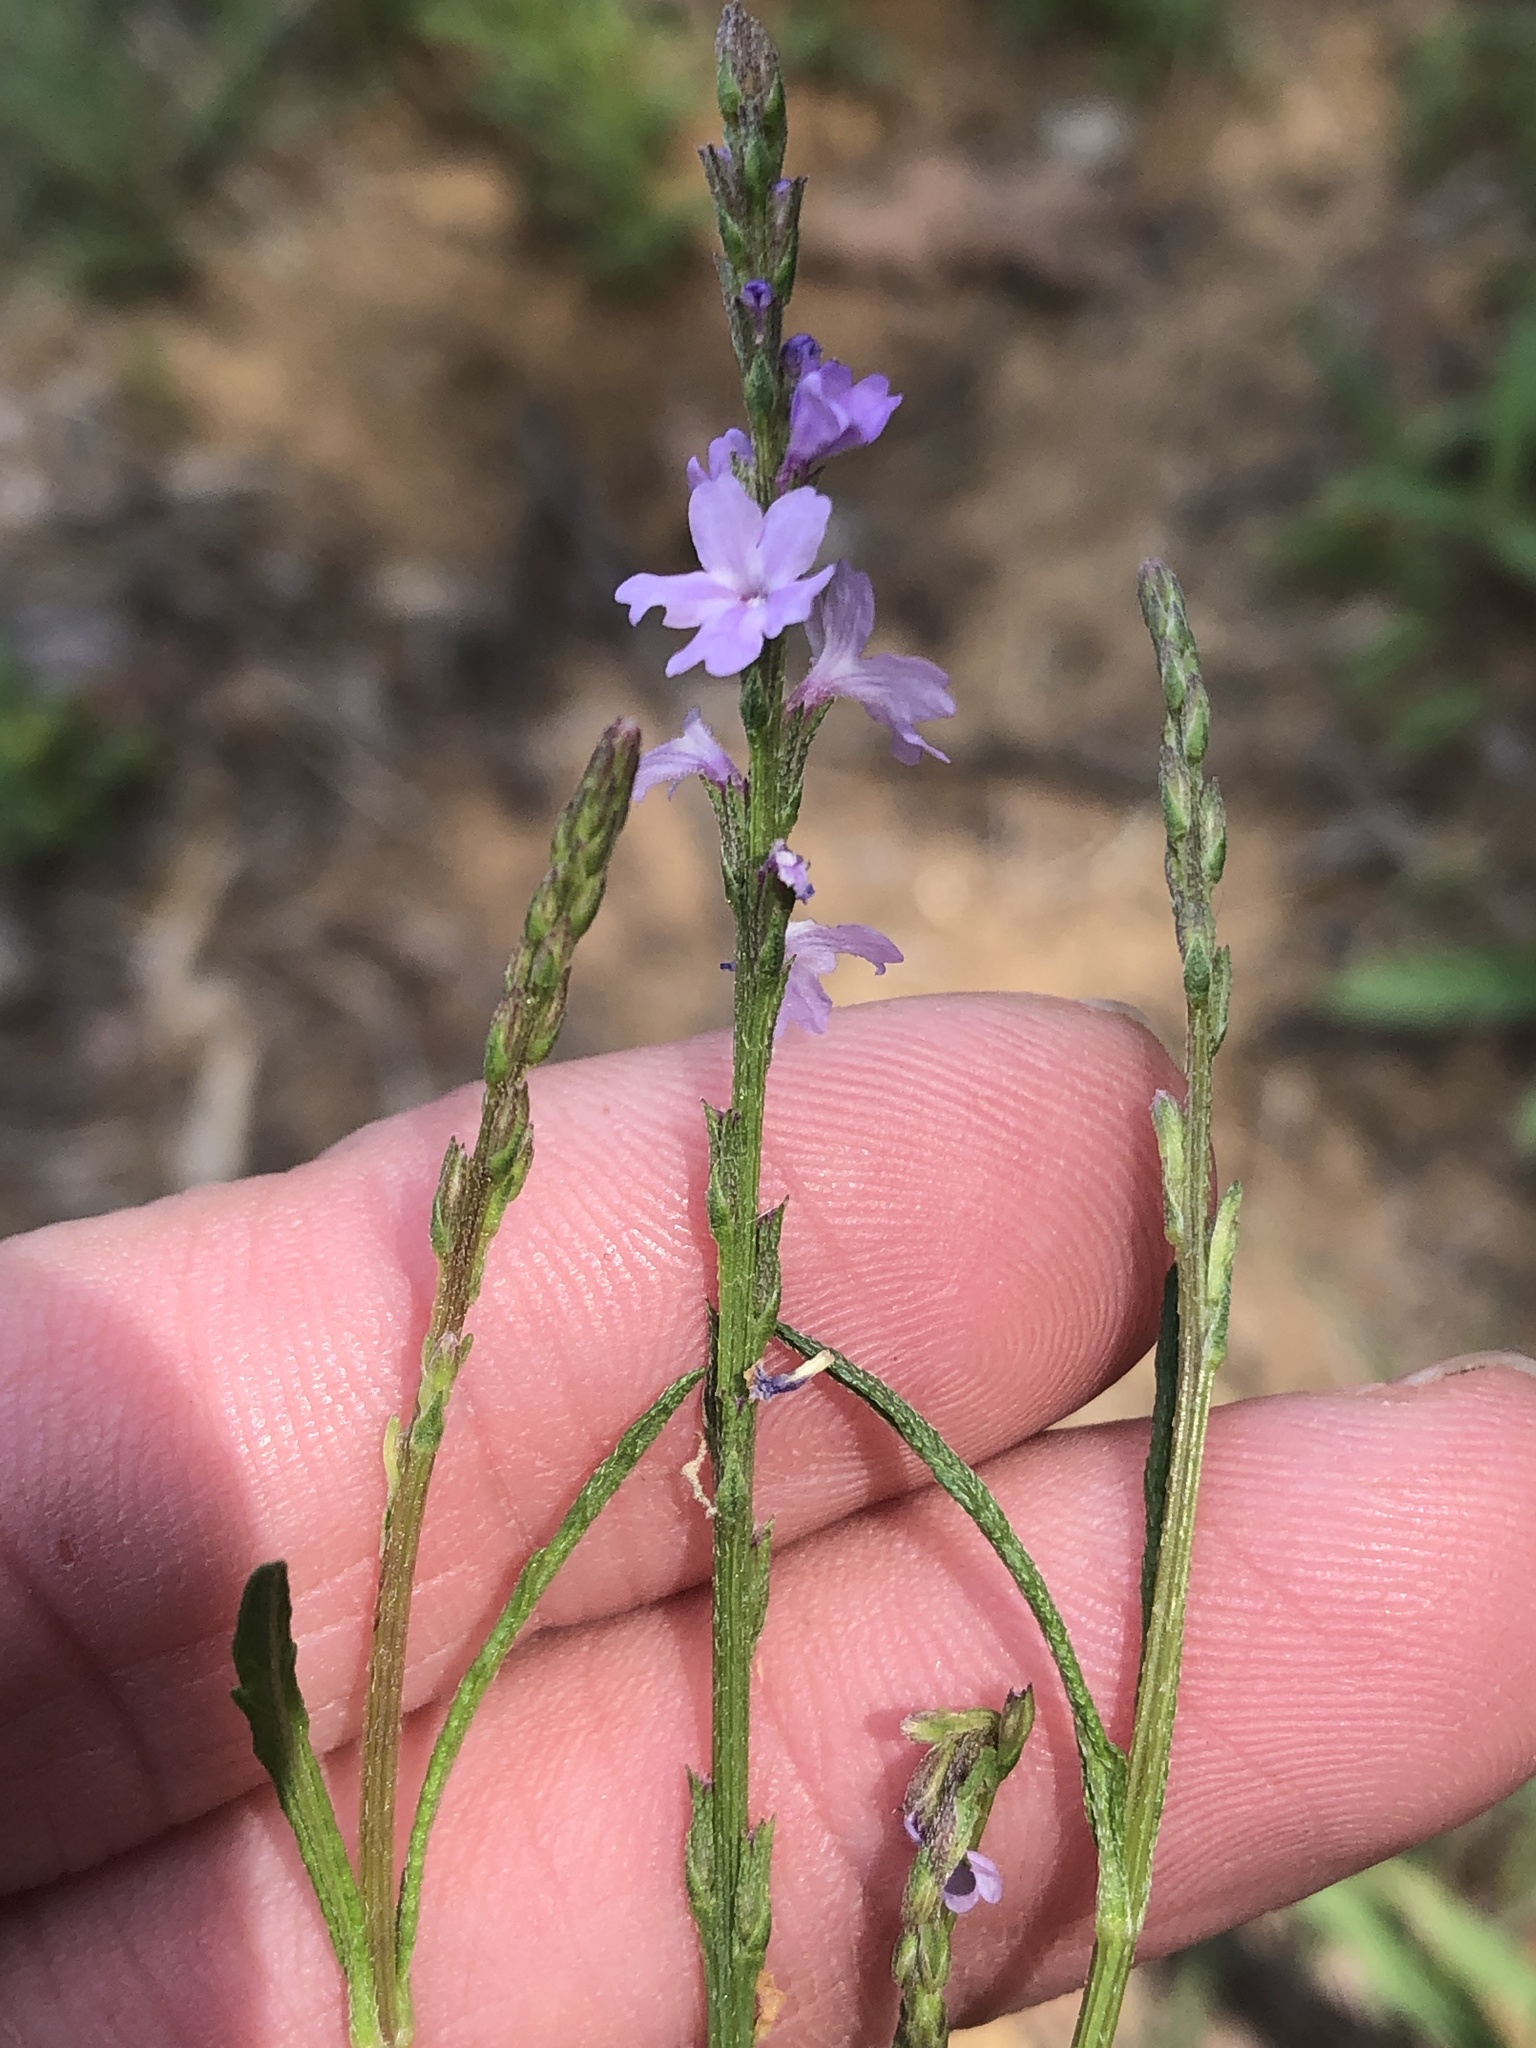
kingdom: Plantae
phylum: Tracheophyta
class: Magnoliopsida
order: Lamiales
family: Verbenaceae
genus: Verbena
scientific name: Verbena halei
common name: Texas vervain
